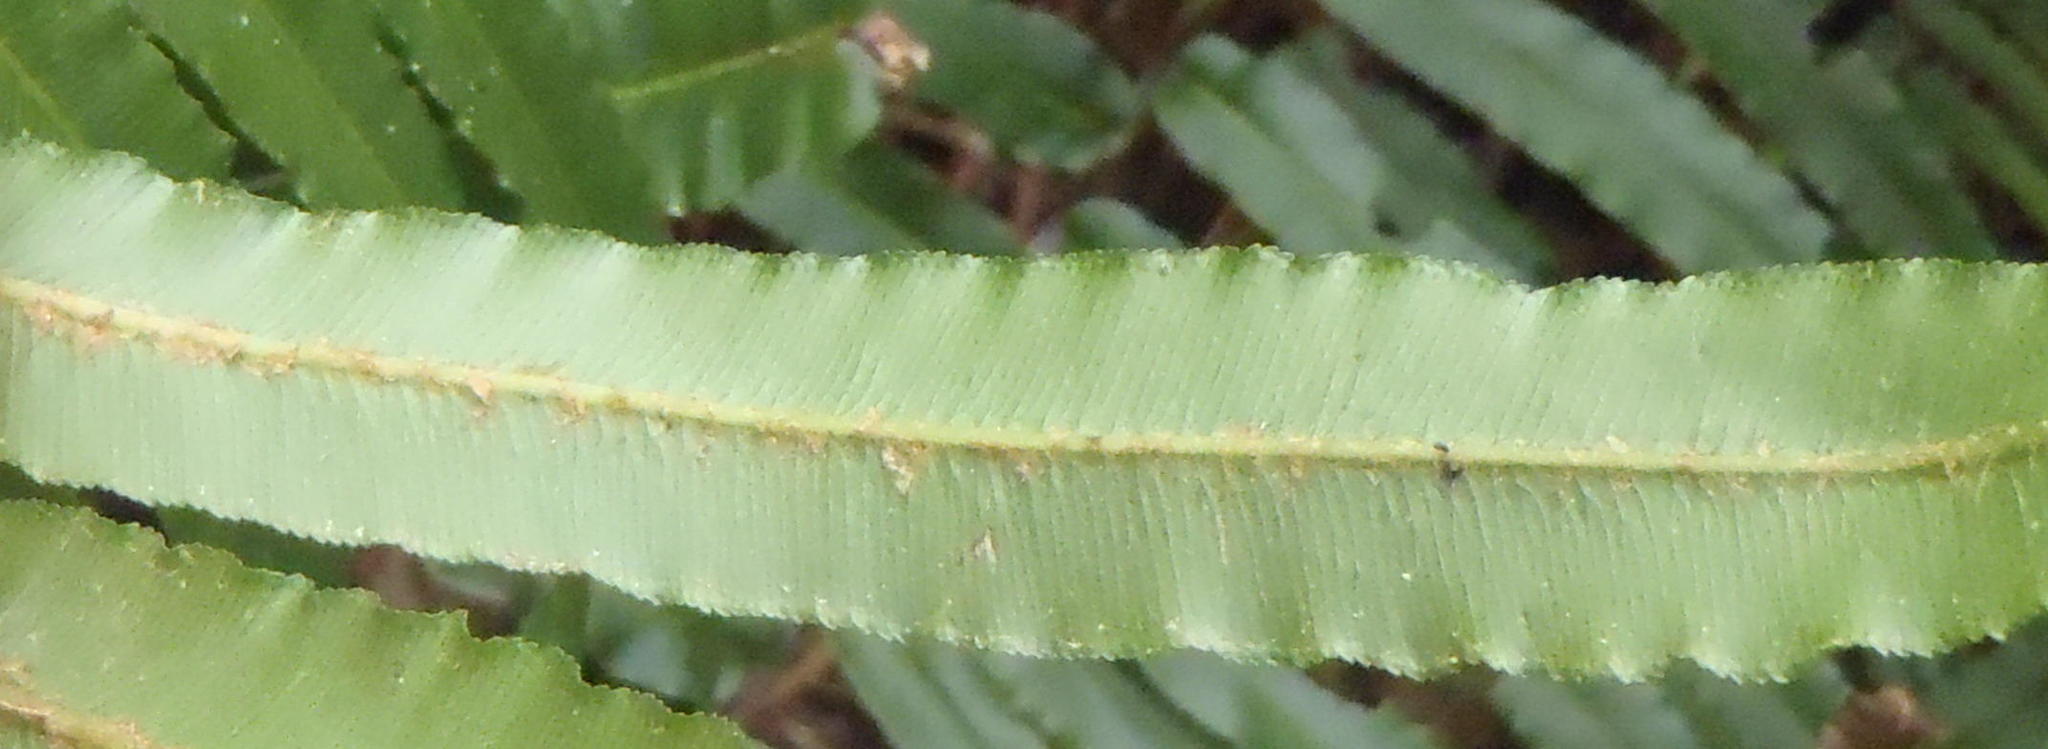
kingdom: Plantae
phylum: Tracheophyta
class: Polypodiopsida
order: Polypodiales
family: Blechnaceae
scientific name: Blechnaceae
